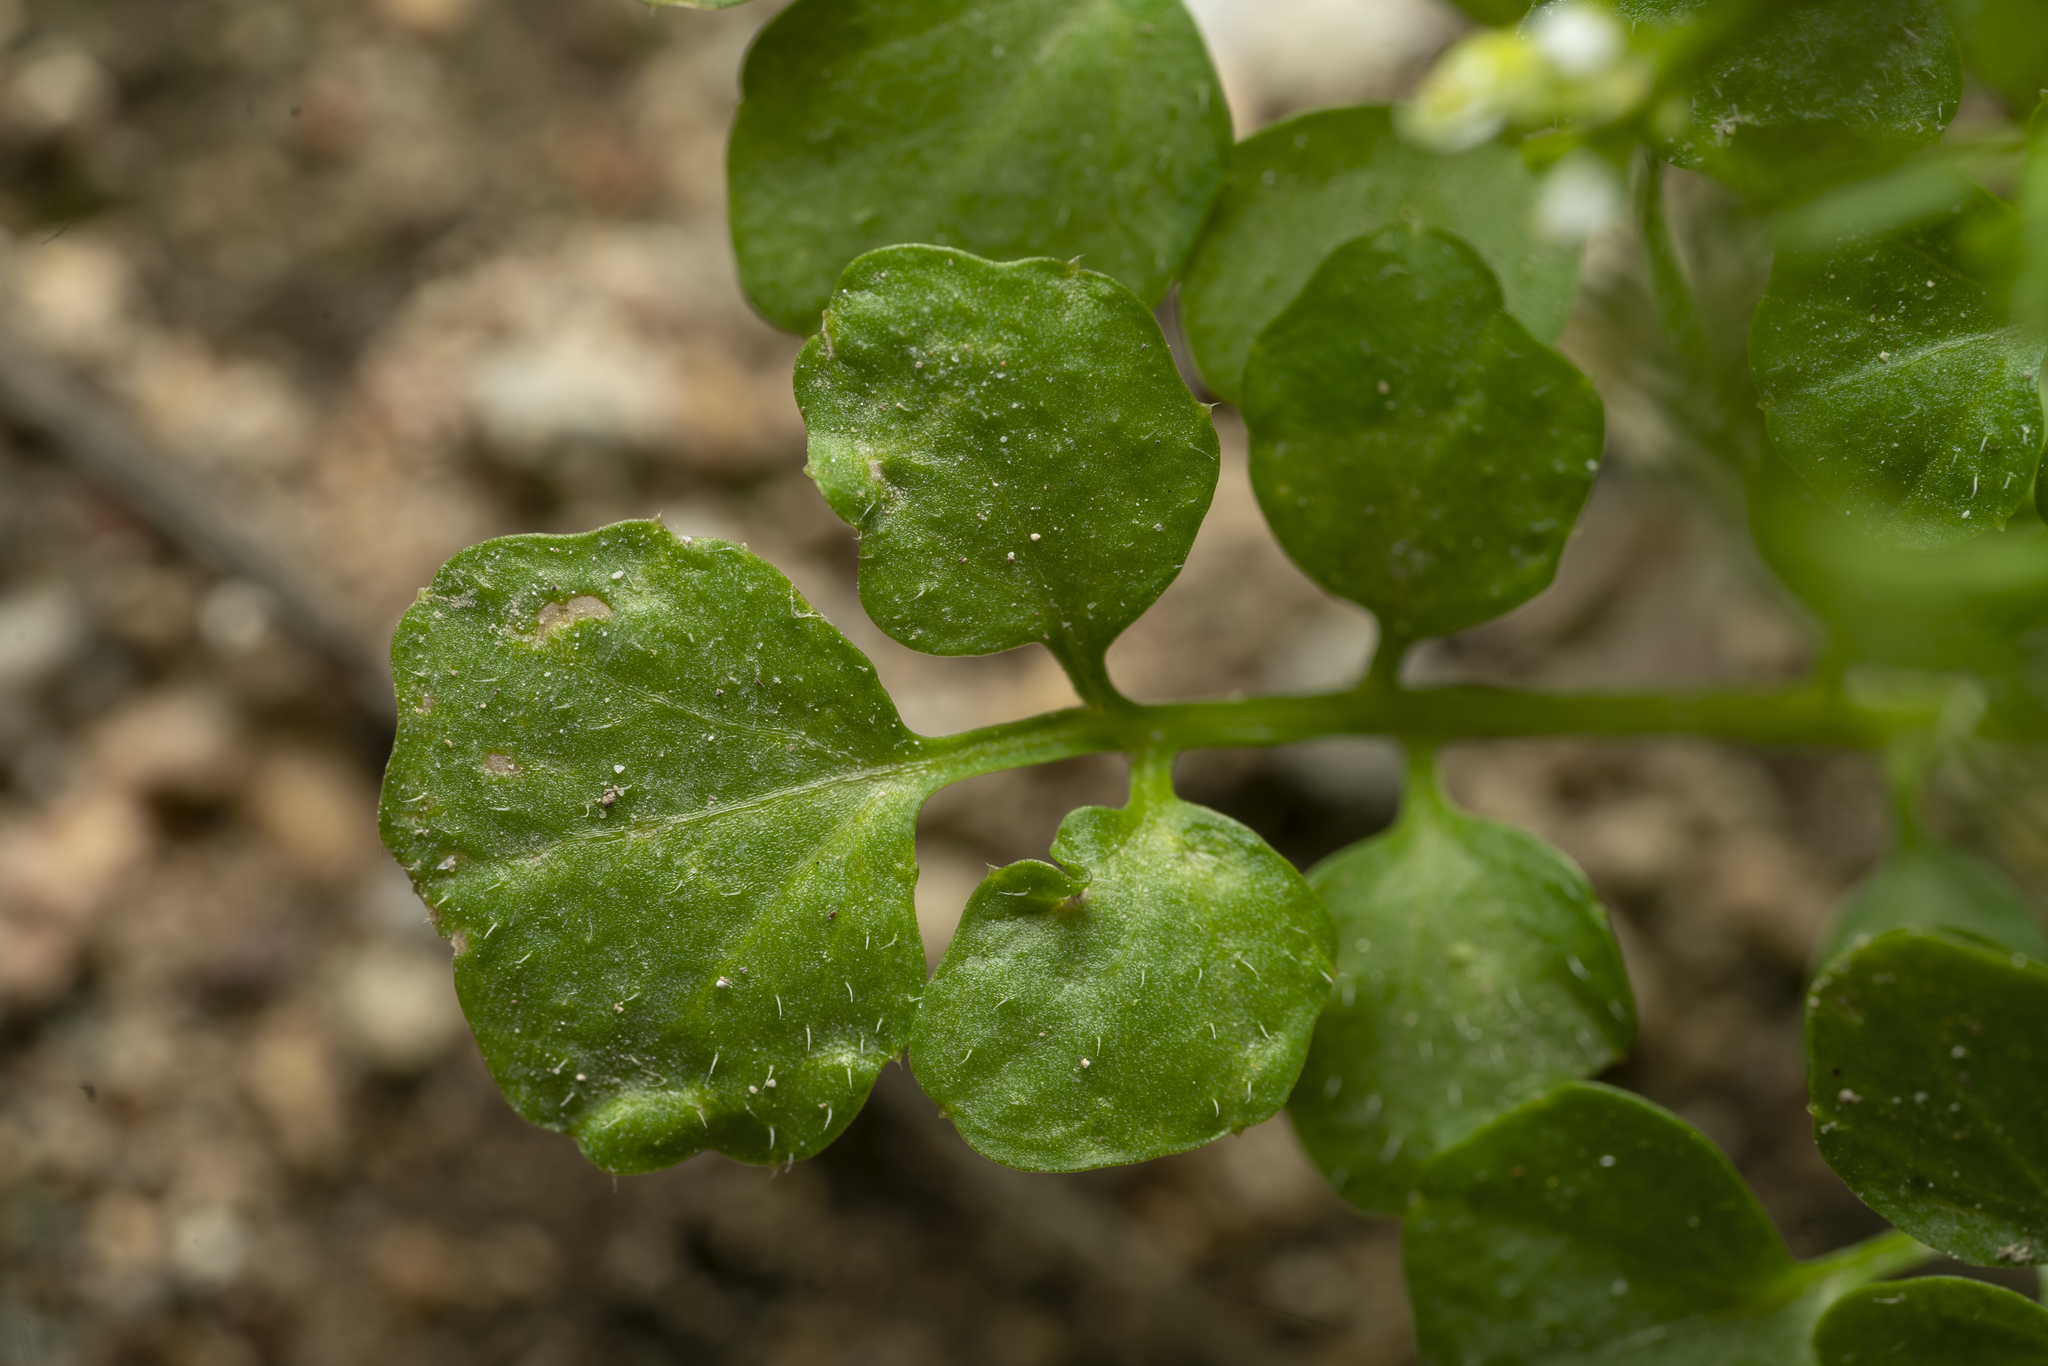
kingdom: Plantae
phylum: Tracheophyta
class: Magnoliopsida
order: Brassicales
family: Brassicaceae
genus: Cardamine
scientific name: Cardamine hirsuta
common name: Hairy bittercress
